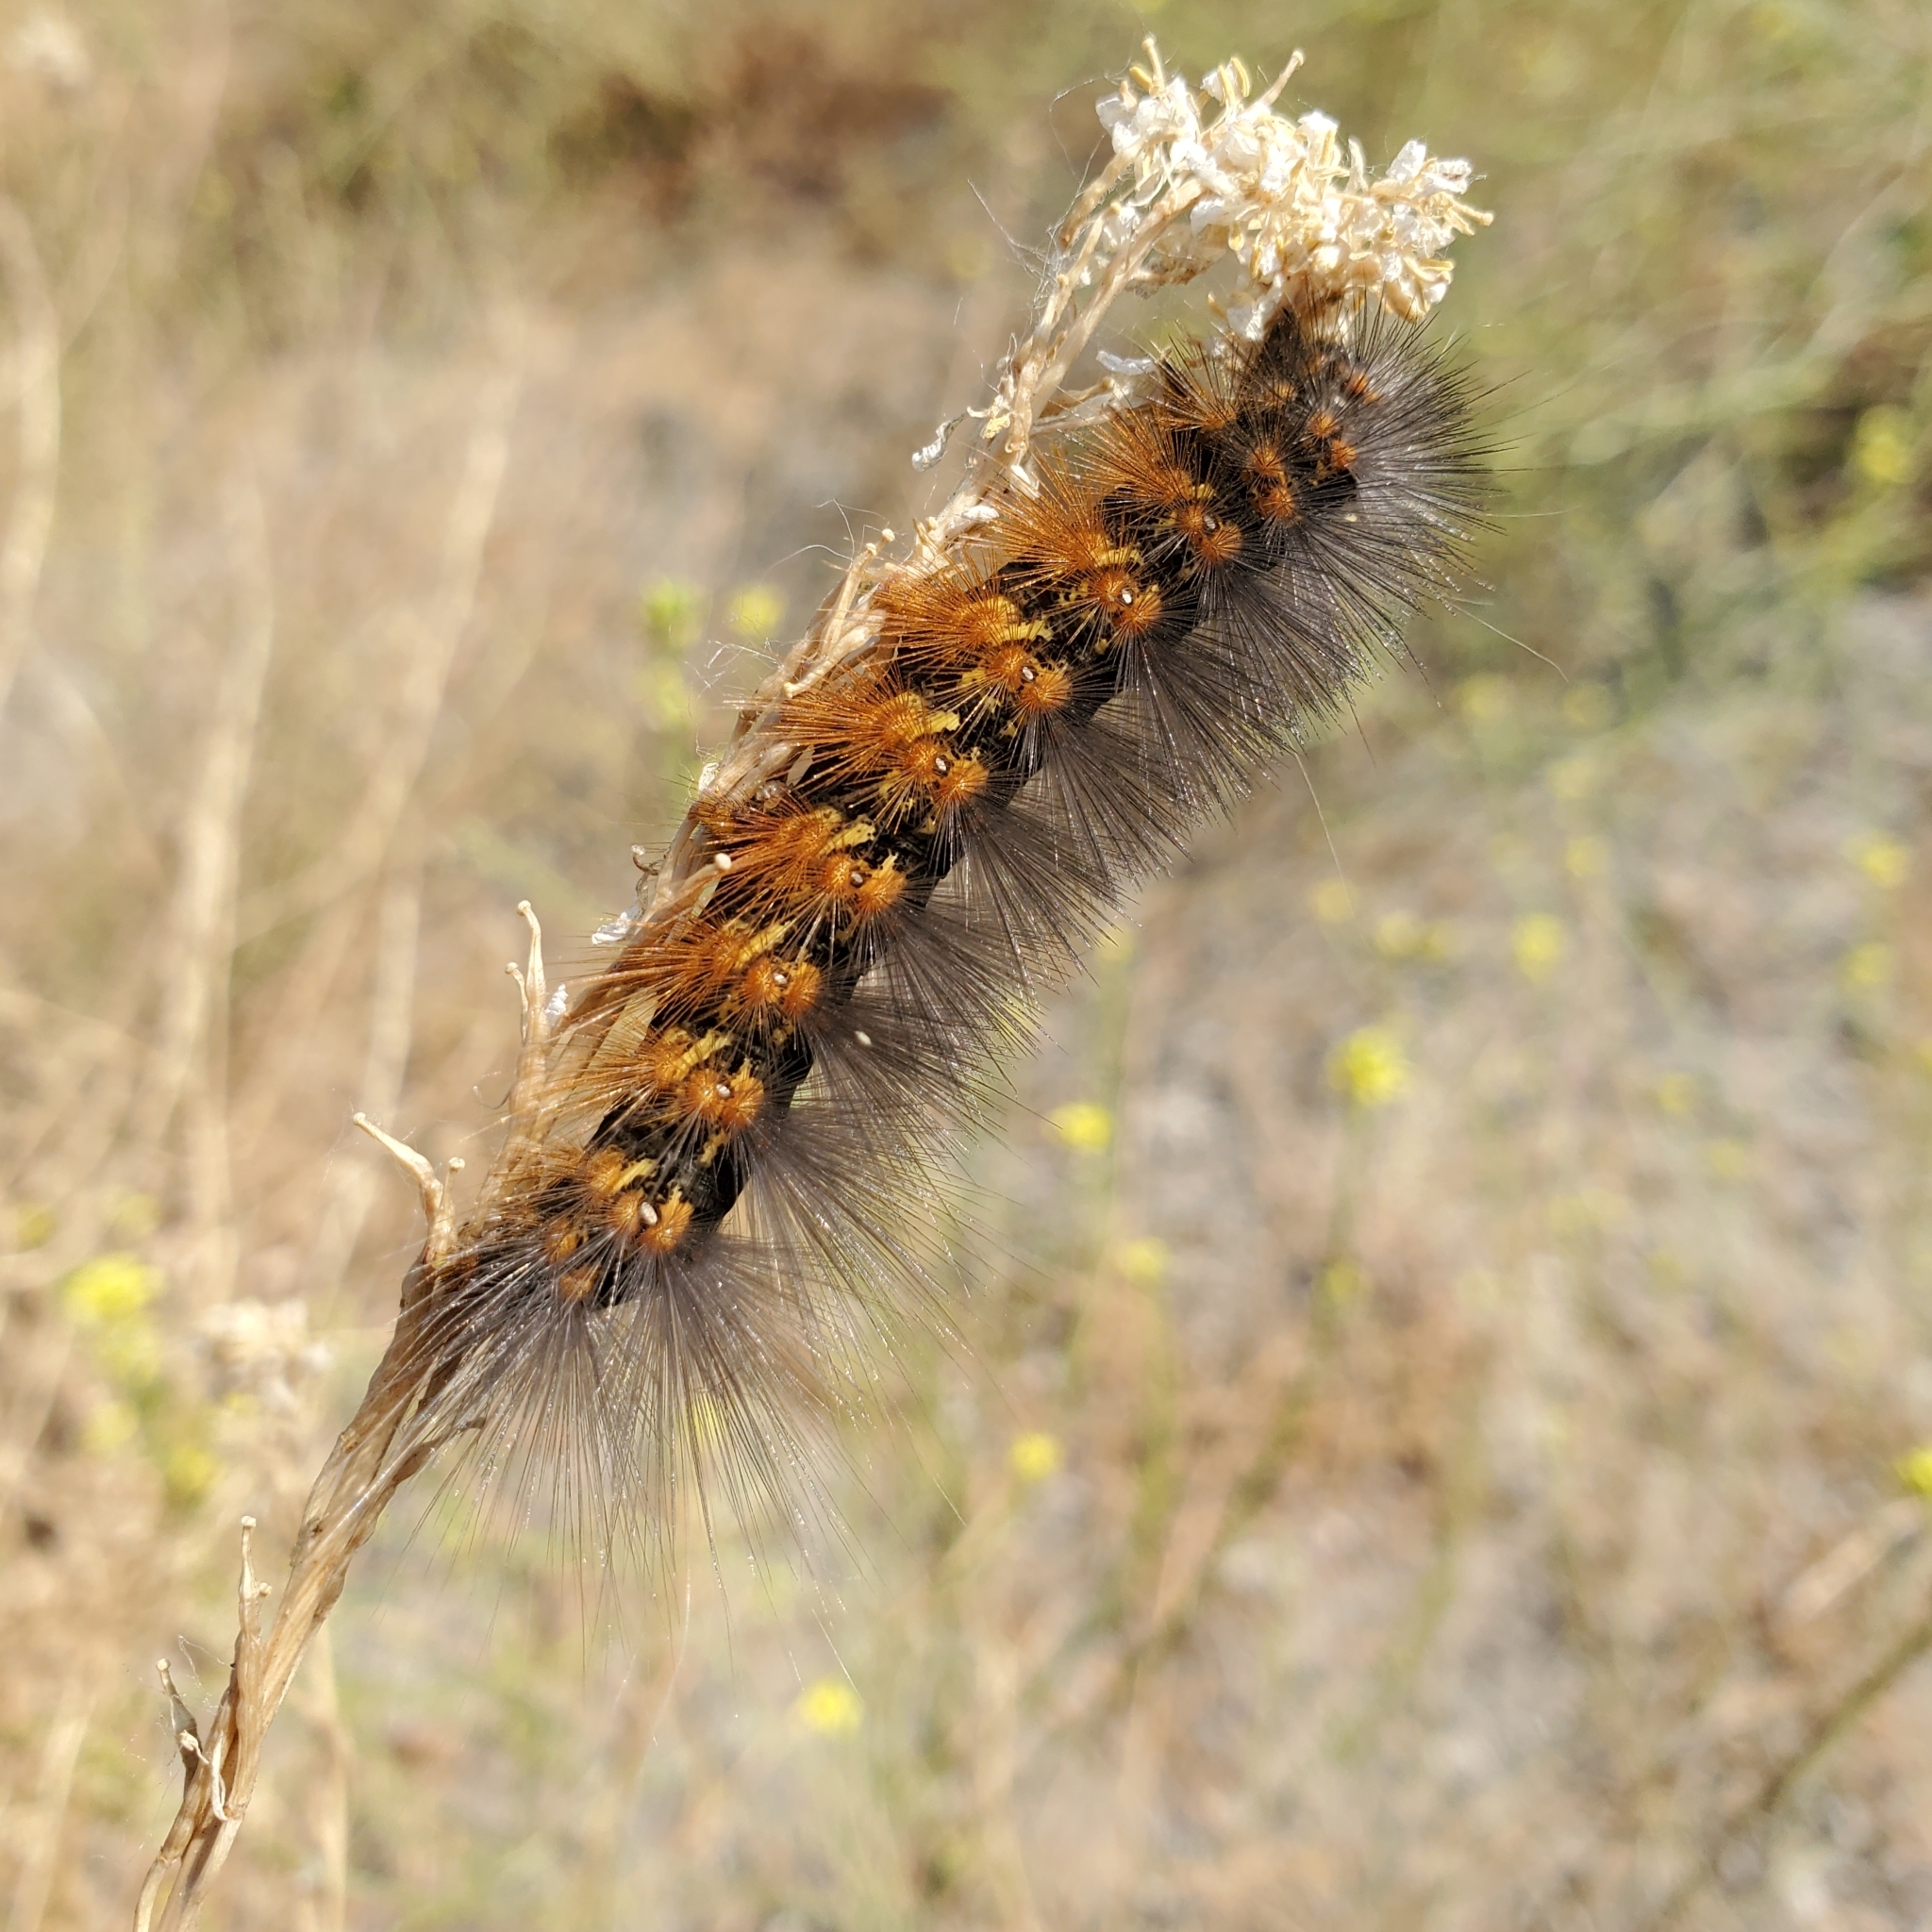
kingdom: Animalia
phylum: Arthropoda
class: Insecta
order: Lepidoptera
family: Erebidae
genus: Estigmene
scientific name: Estigmene acrea
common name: Salt marsh moth
